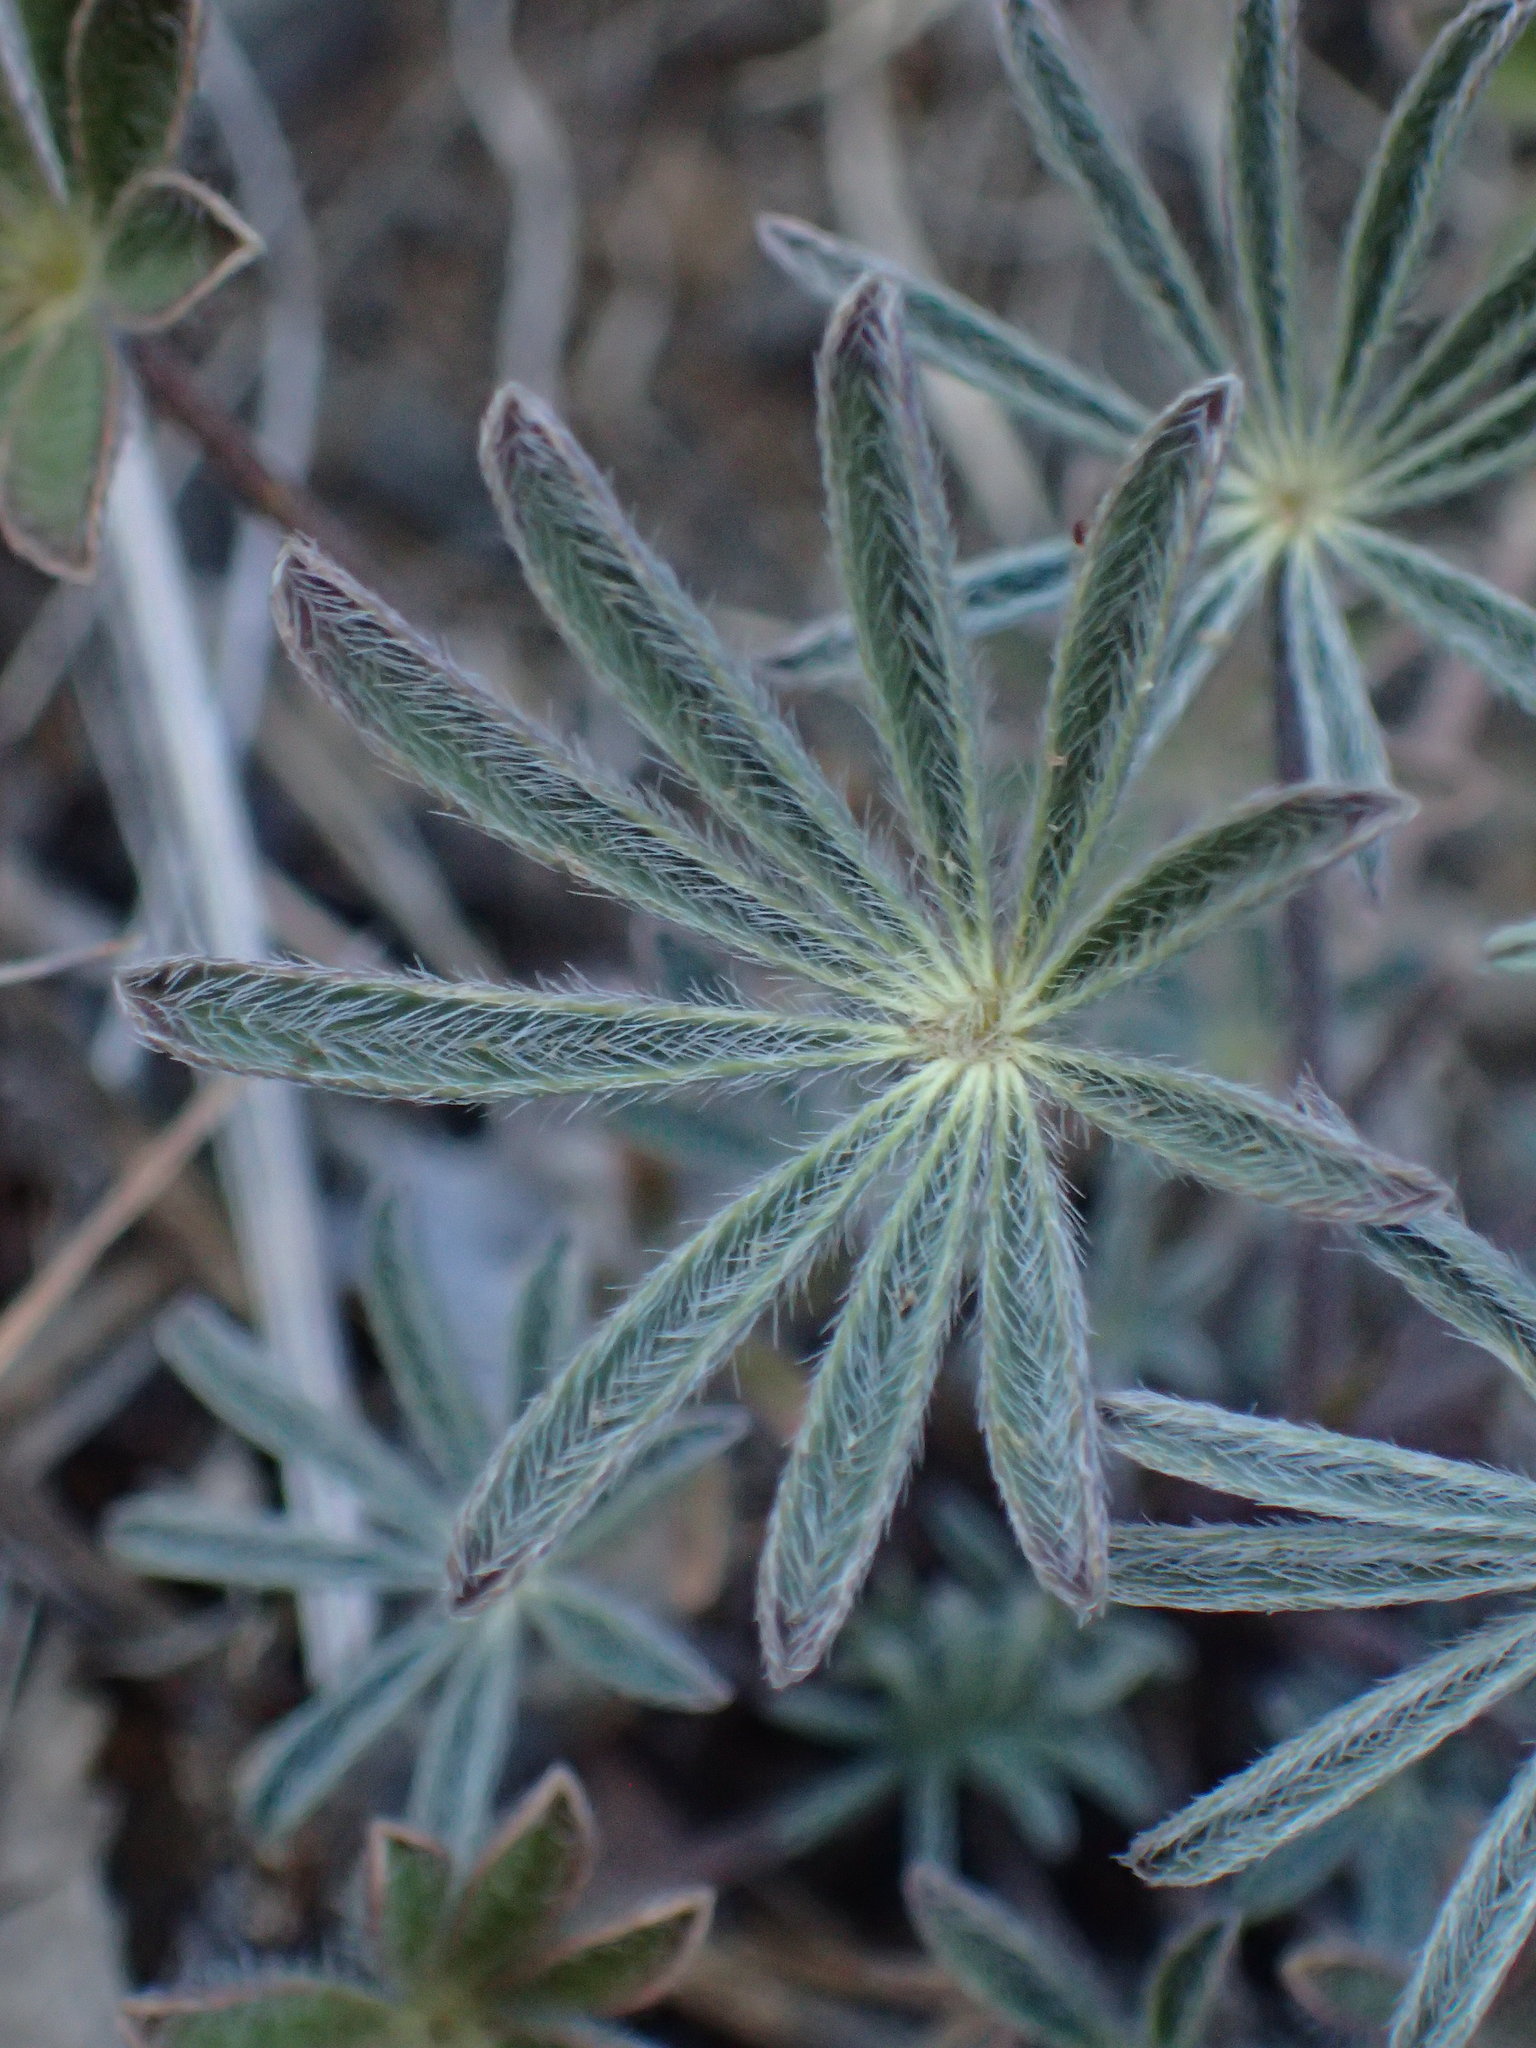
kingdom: Plantae
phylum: Tracheophyta
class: Magnoliopsida
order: Fabales
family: Fabaceae
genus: Lupinus
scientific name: Lupinus sparsiflorus
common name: Coulter's lupine
